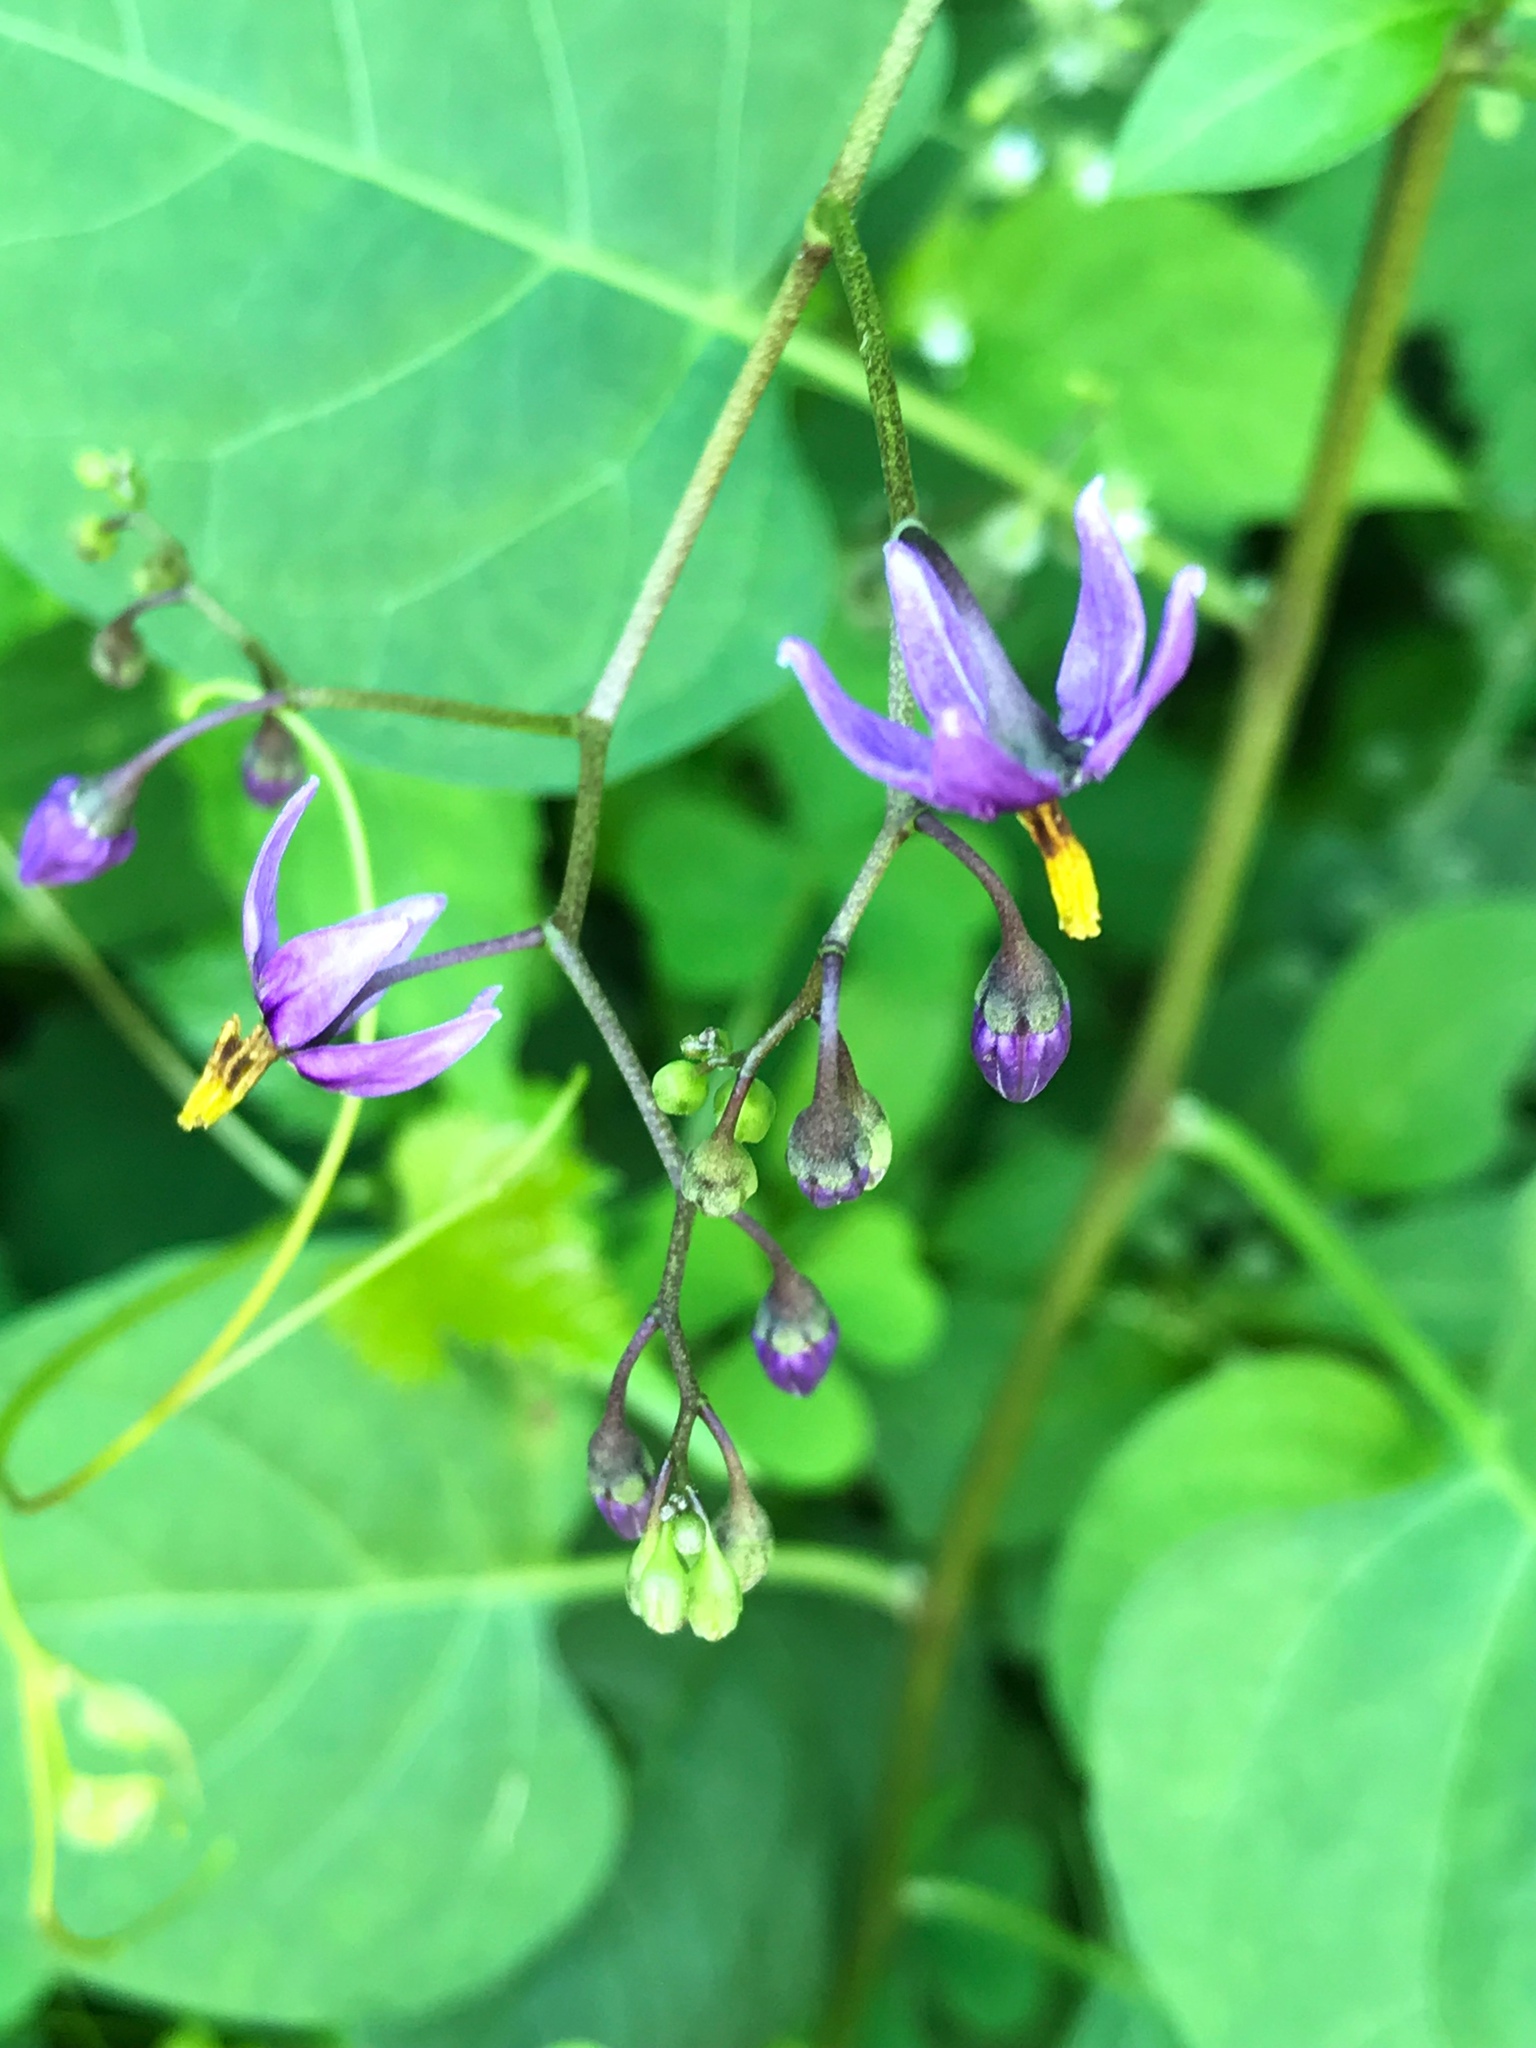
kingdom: Plantae
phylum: Tracheophyta
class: Magnoliopsida
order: Solanales
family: Solanaceae
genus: Solanum
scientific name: Solanum dulcamara
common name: Climbing nightshade
